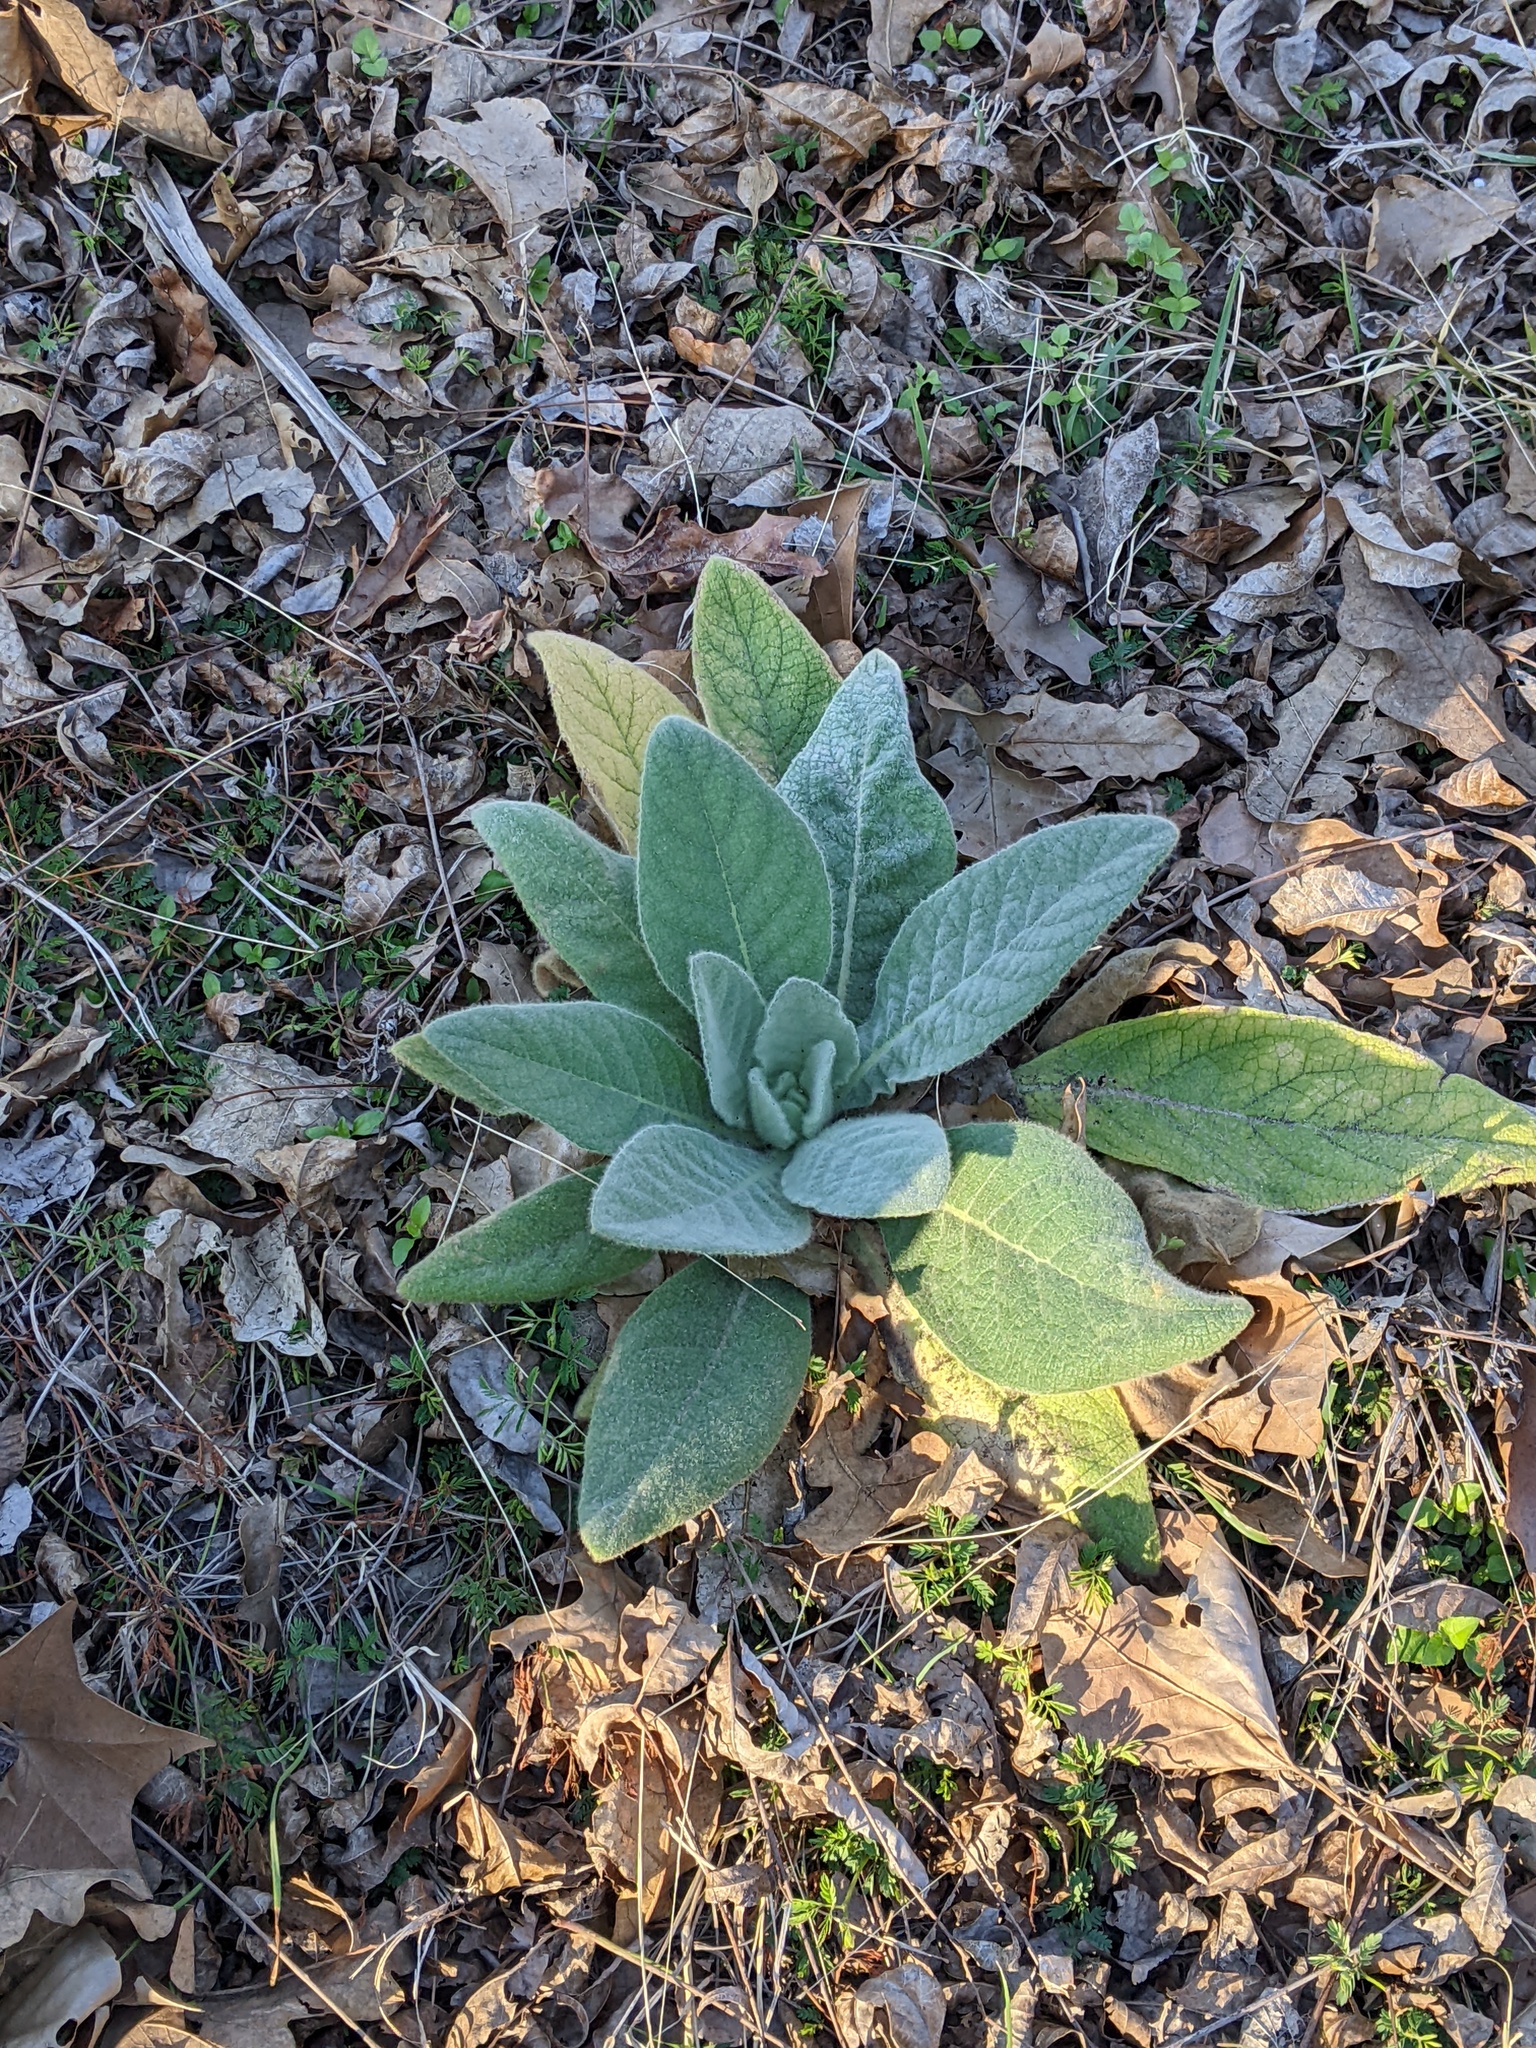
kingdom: Plantae
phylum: Tracheophyta
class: Magnoliopsida
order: Lamiales
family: Scrophulariaceae
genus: Verbascum
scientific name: Verbascum thapsus
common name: Common mullein
